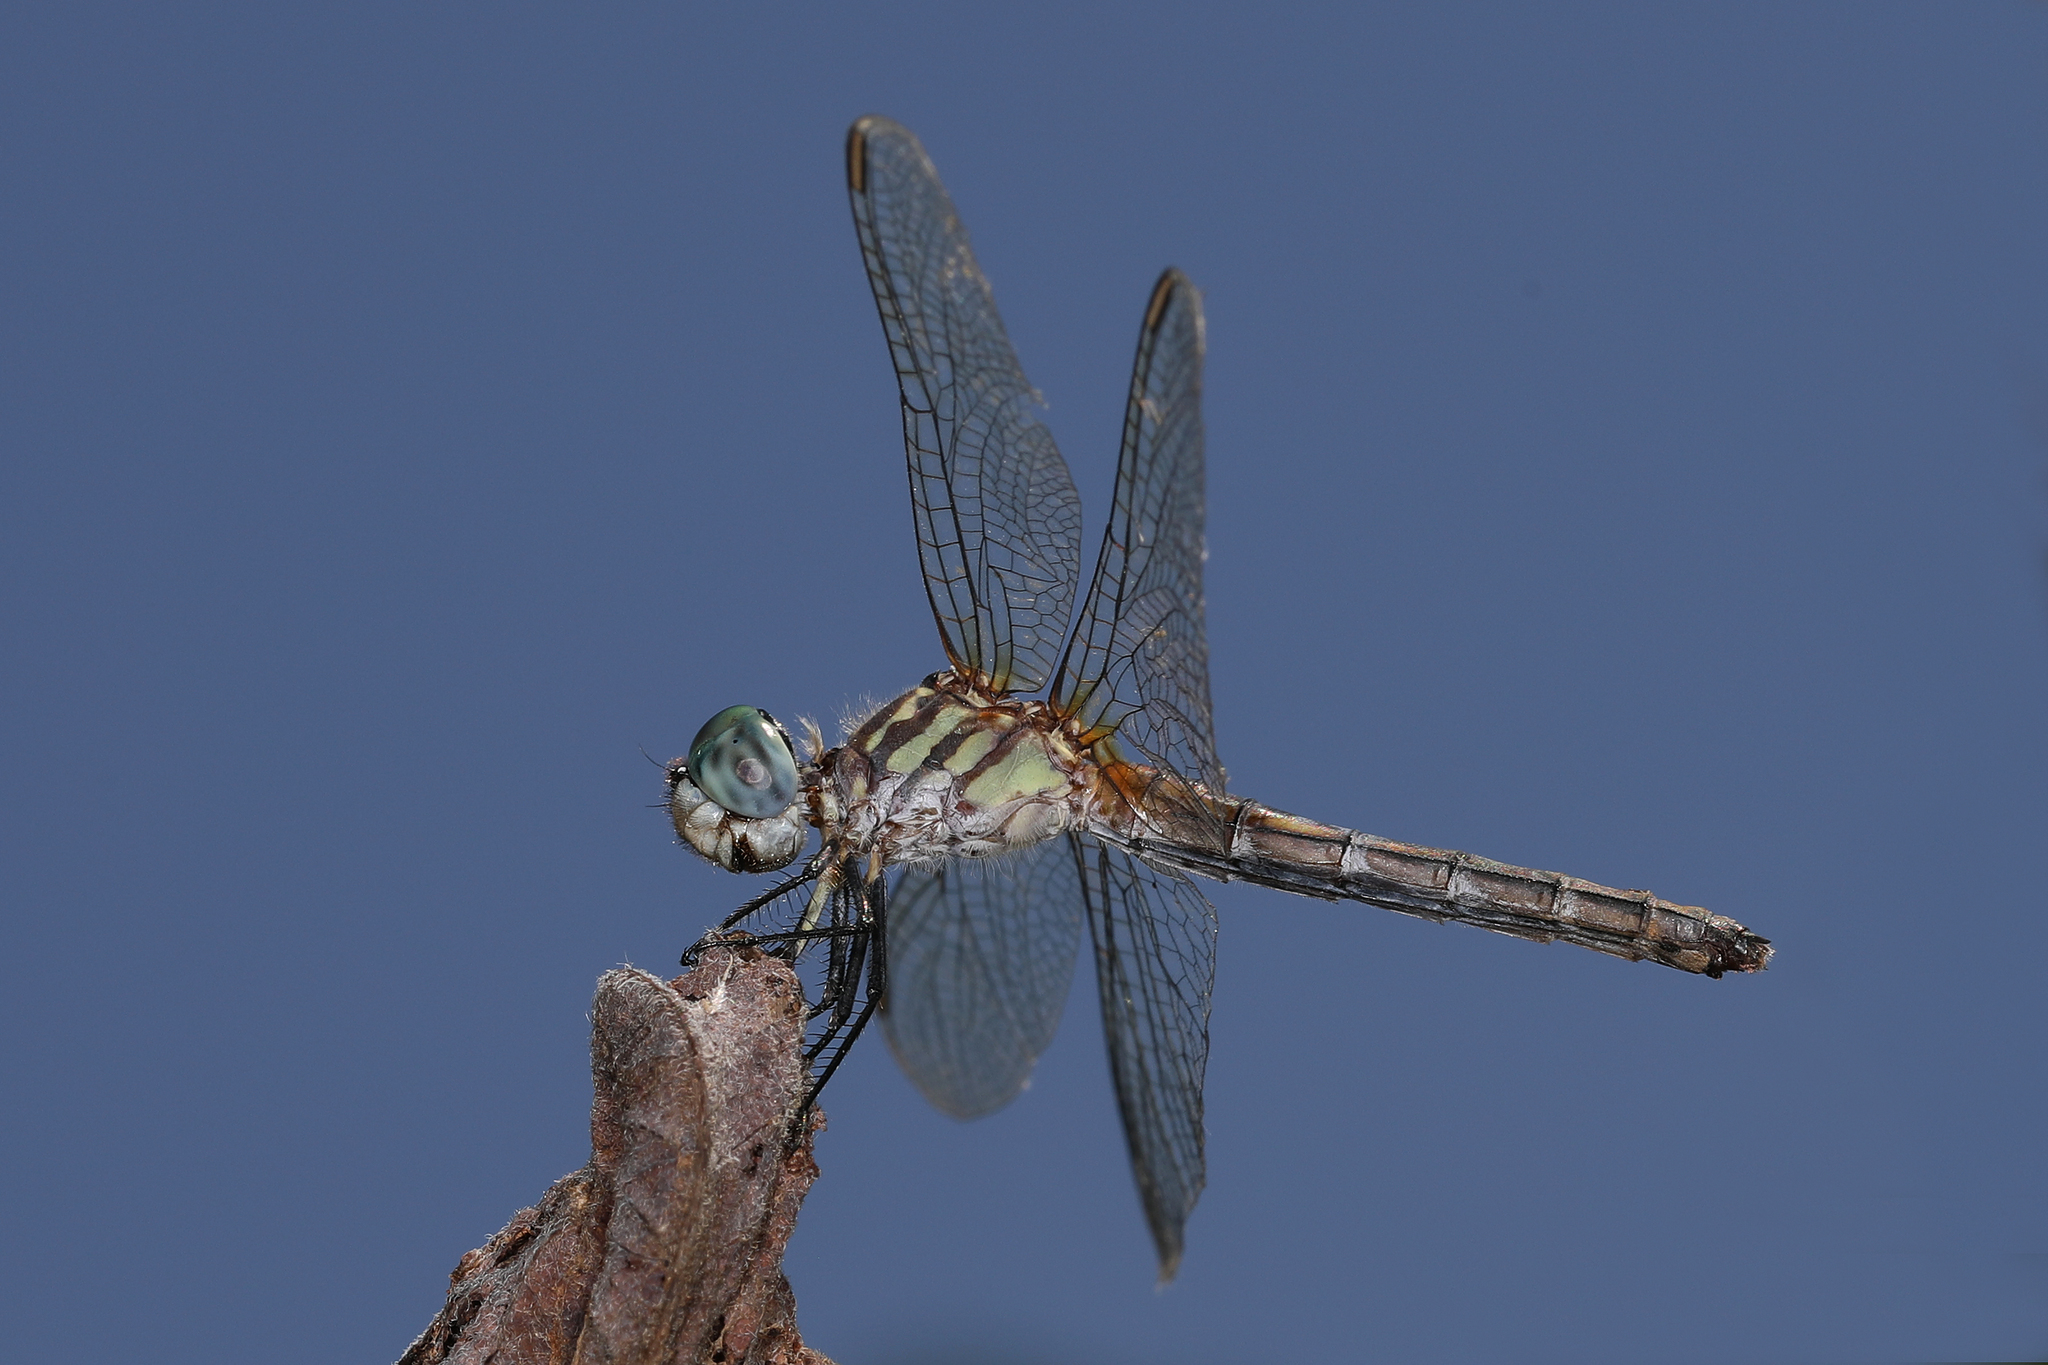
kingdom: Animalia
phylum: Arthropoda
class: Insecta
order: Odonata
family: Libellulidae
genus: Pachydiplax
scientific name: Pachydiplax longipennis
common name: Blue dasher
